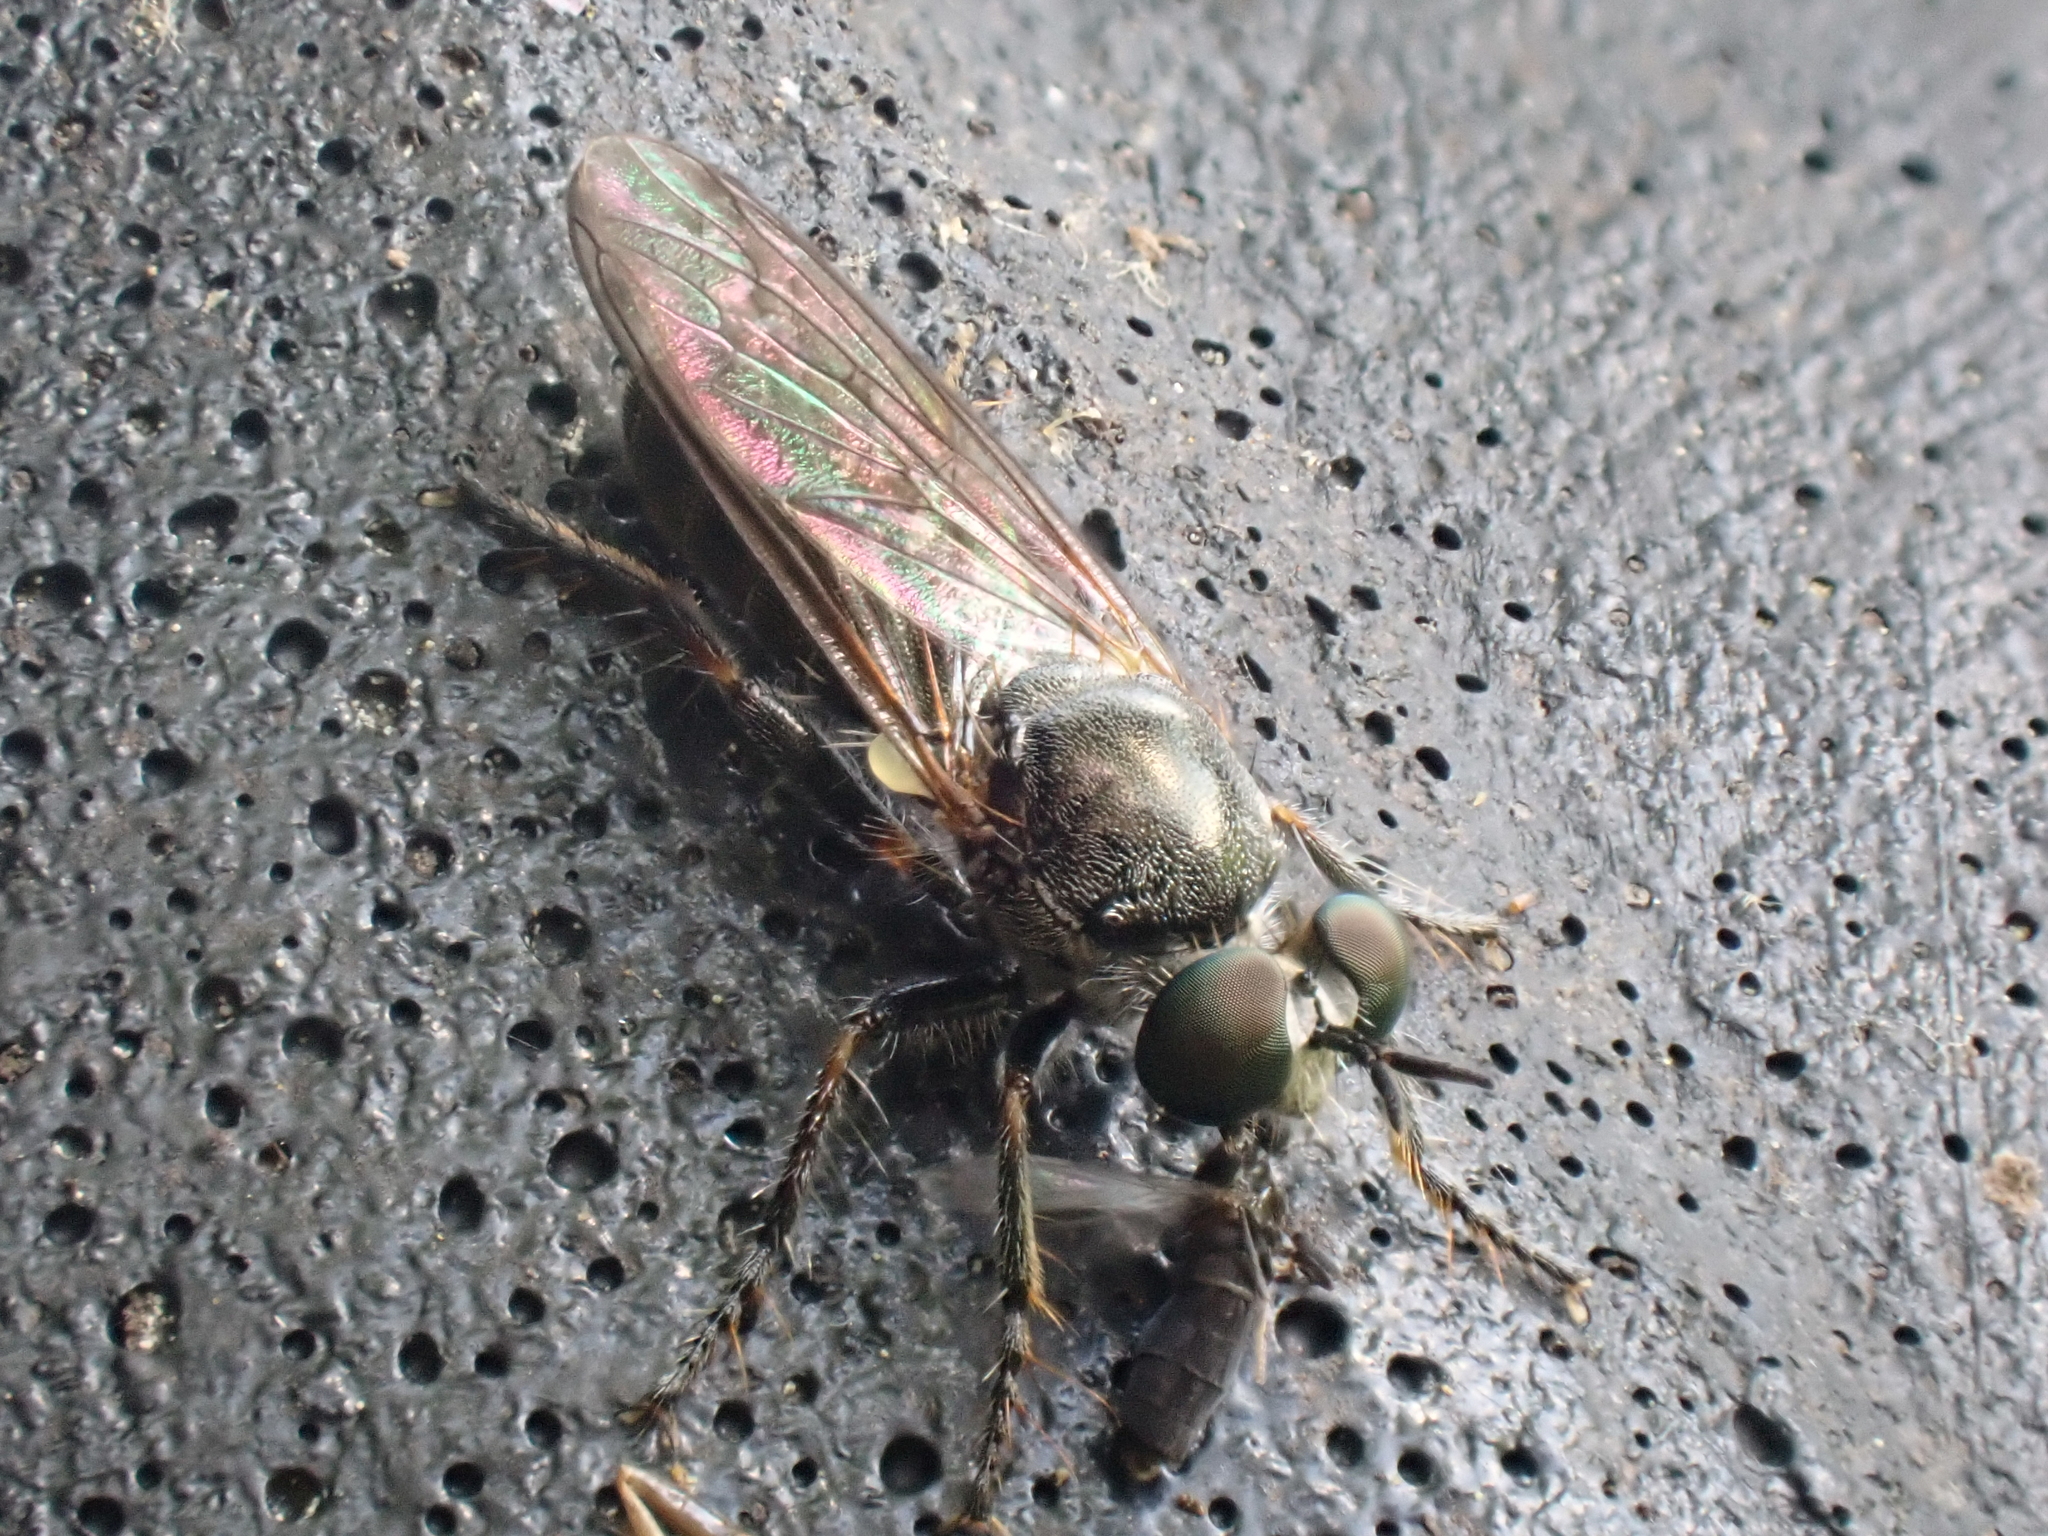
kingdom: Animalia
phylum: Arthropoda
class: Insecta
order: Diptera
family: Asilidae
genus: Atomosia
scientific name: Atomosia puella
